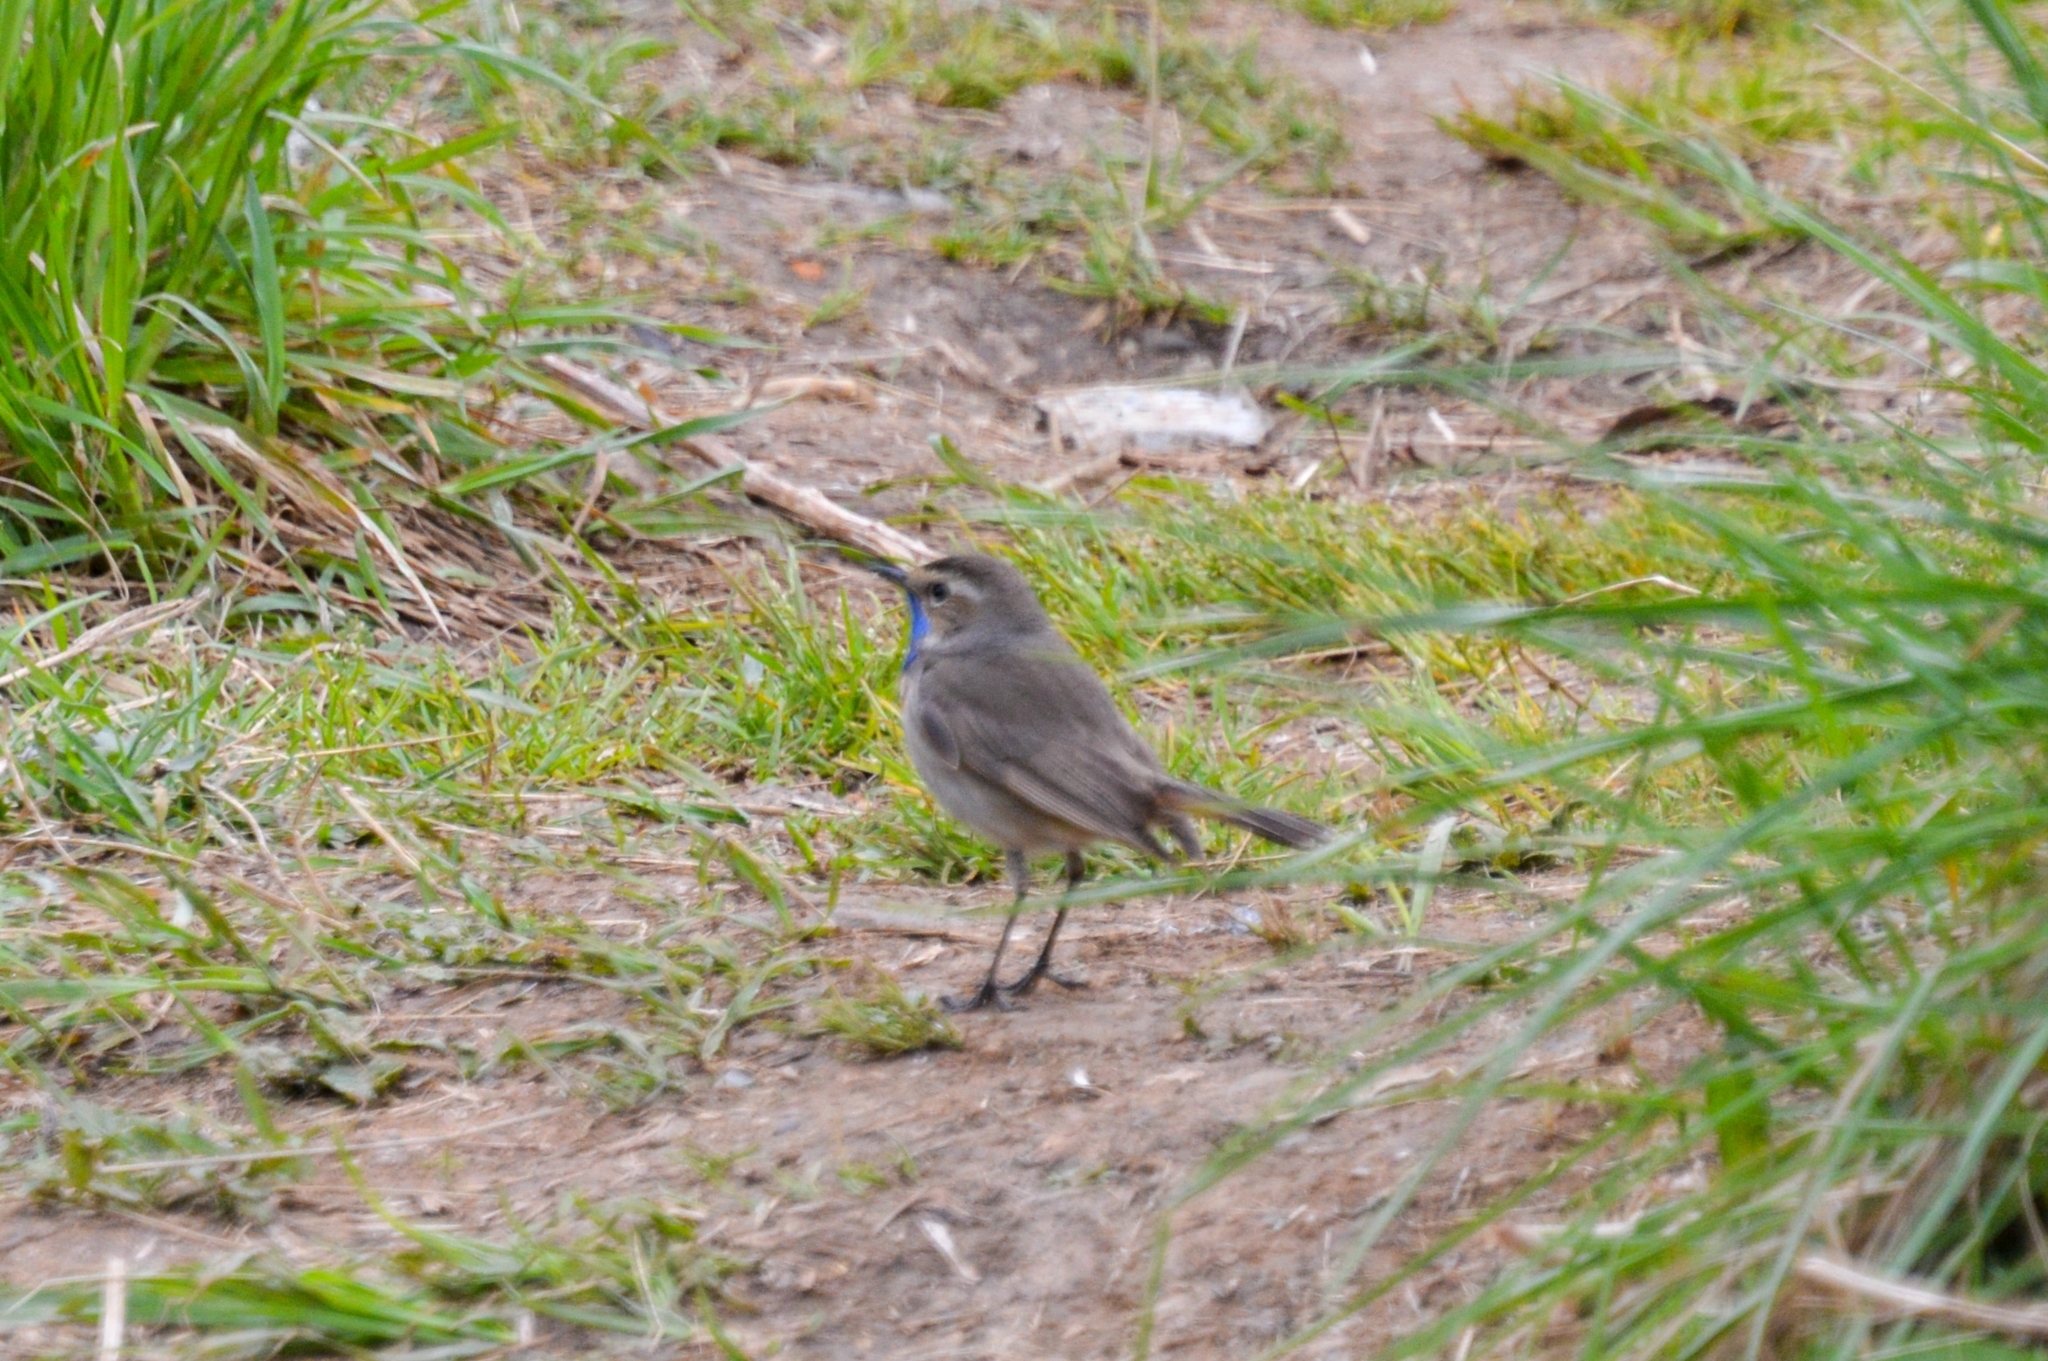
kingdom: Animalia
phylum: Chordata
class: Aves
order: Passeriformes
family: Muscicapidae
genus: Luscinia
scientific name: Luscinia svecica
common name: Bluethroat
